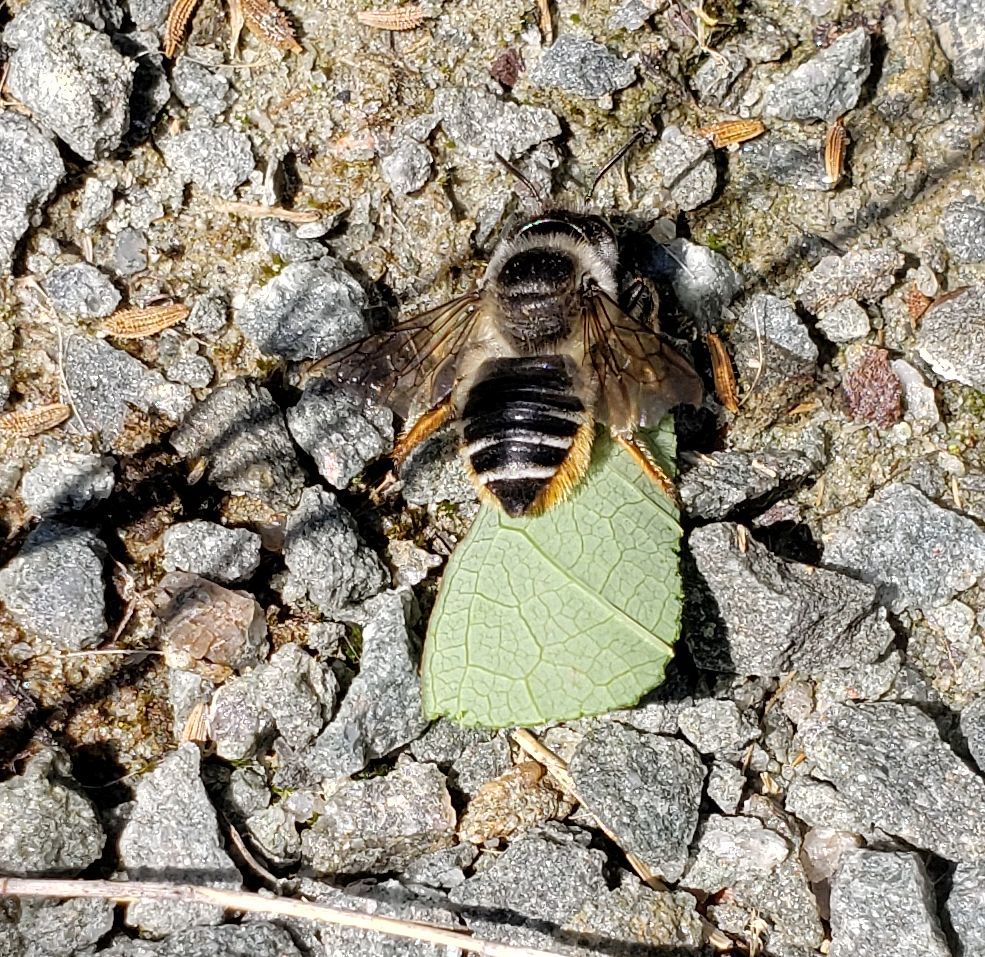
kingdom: Animalia
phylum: Arthropoda
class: Insecta
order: Hymenoptera
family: Megachilidae
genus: Megachile
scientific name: Megachile frigida
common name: Frigid leafcutter
